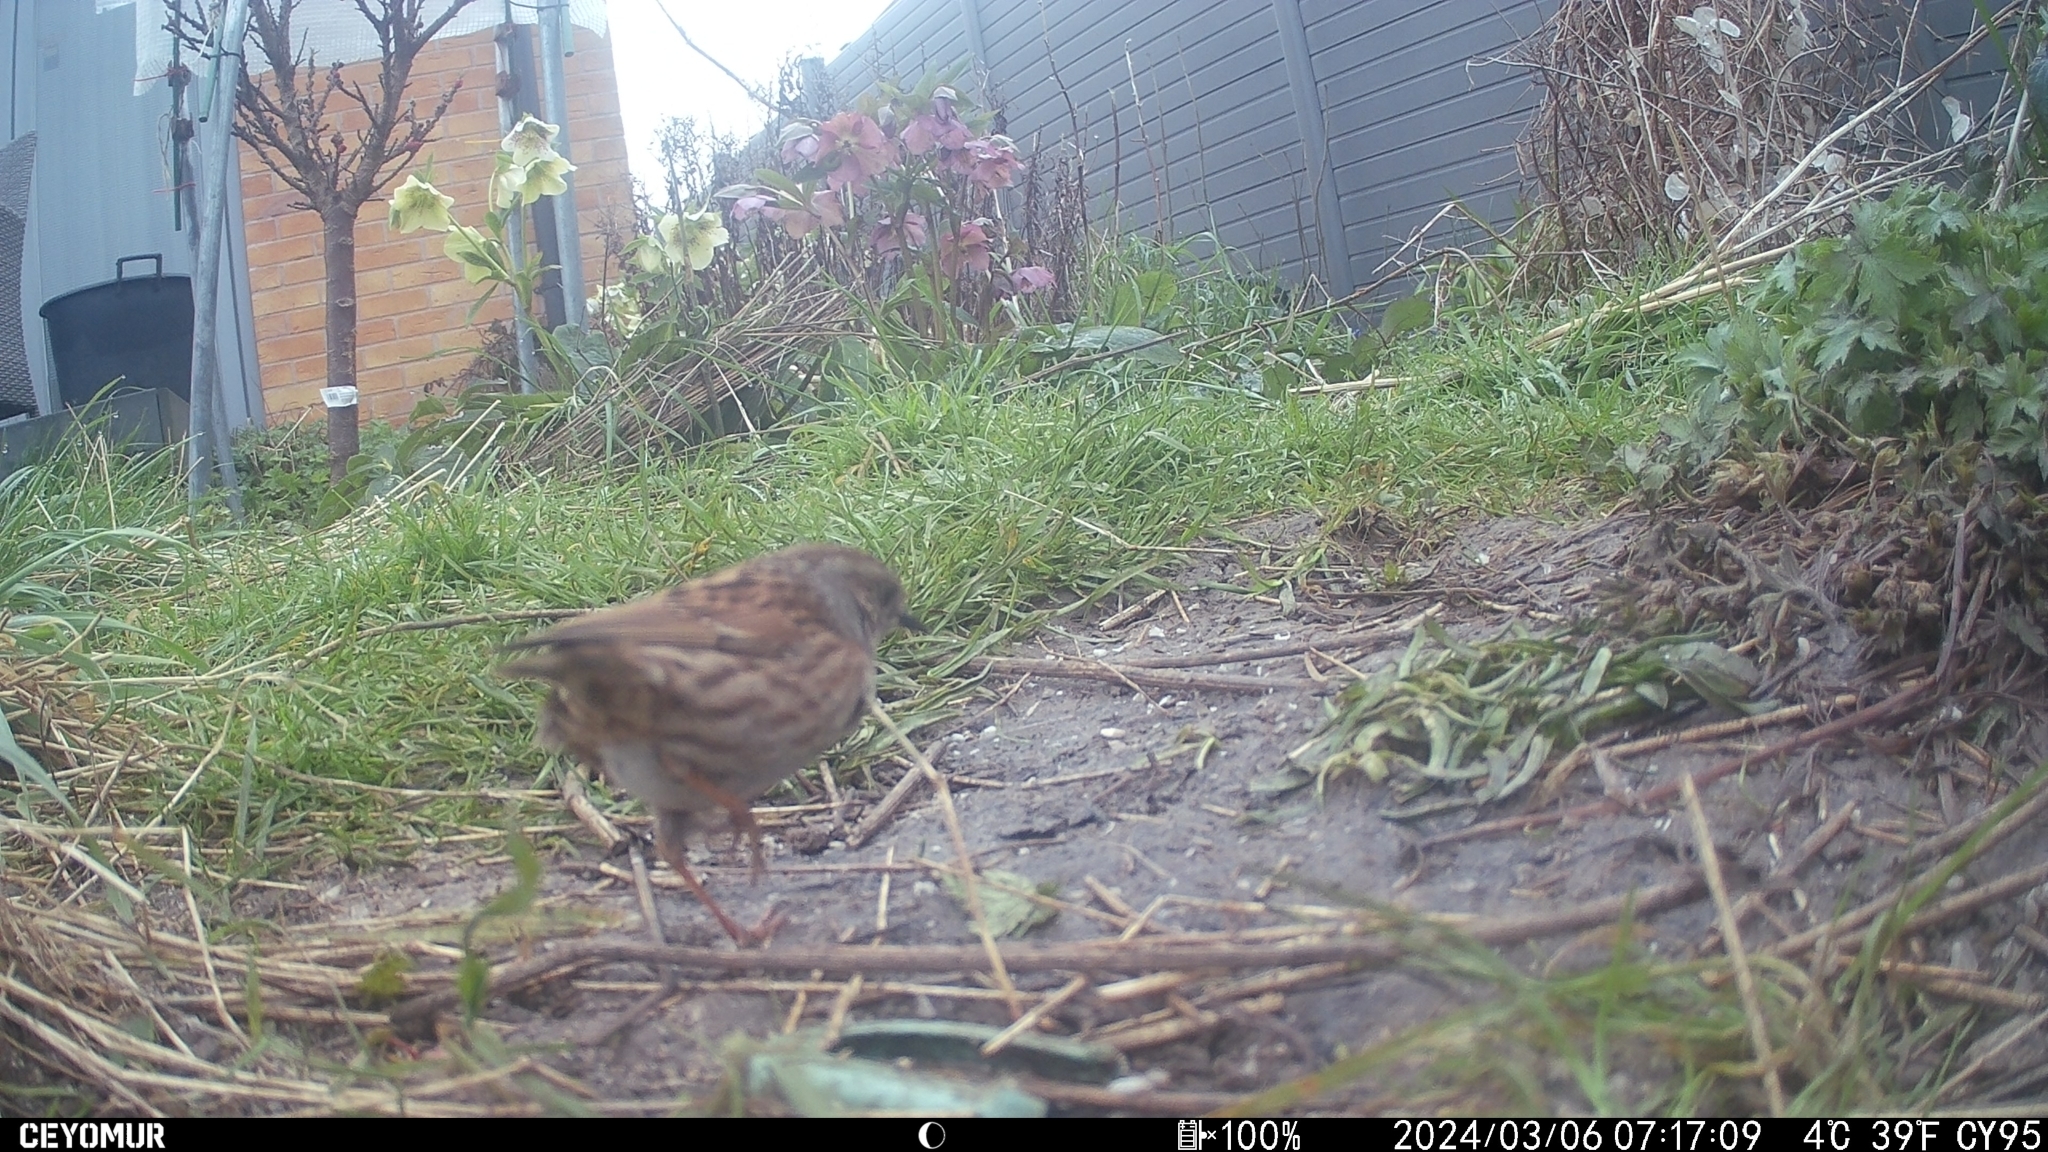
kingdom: Animalia
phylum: Chordata
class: Aves
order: Passeriformes
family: Prunellidae
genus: Prunella
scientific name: Prunella modularis
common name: Dunnock
